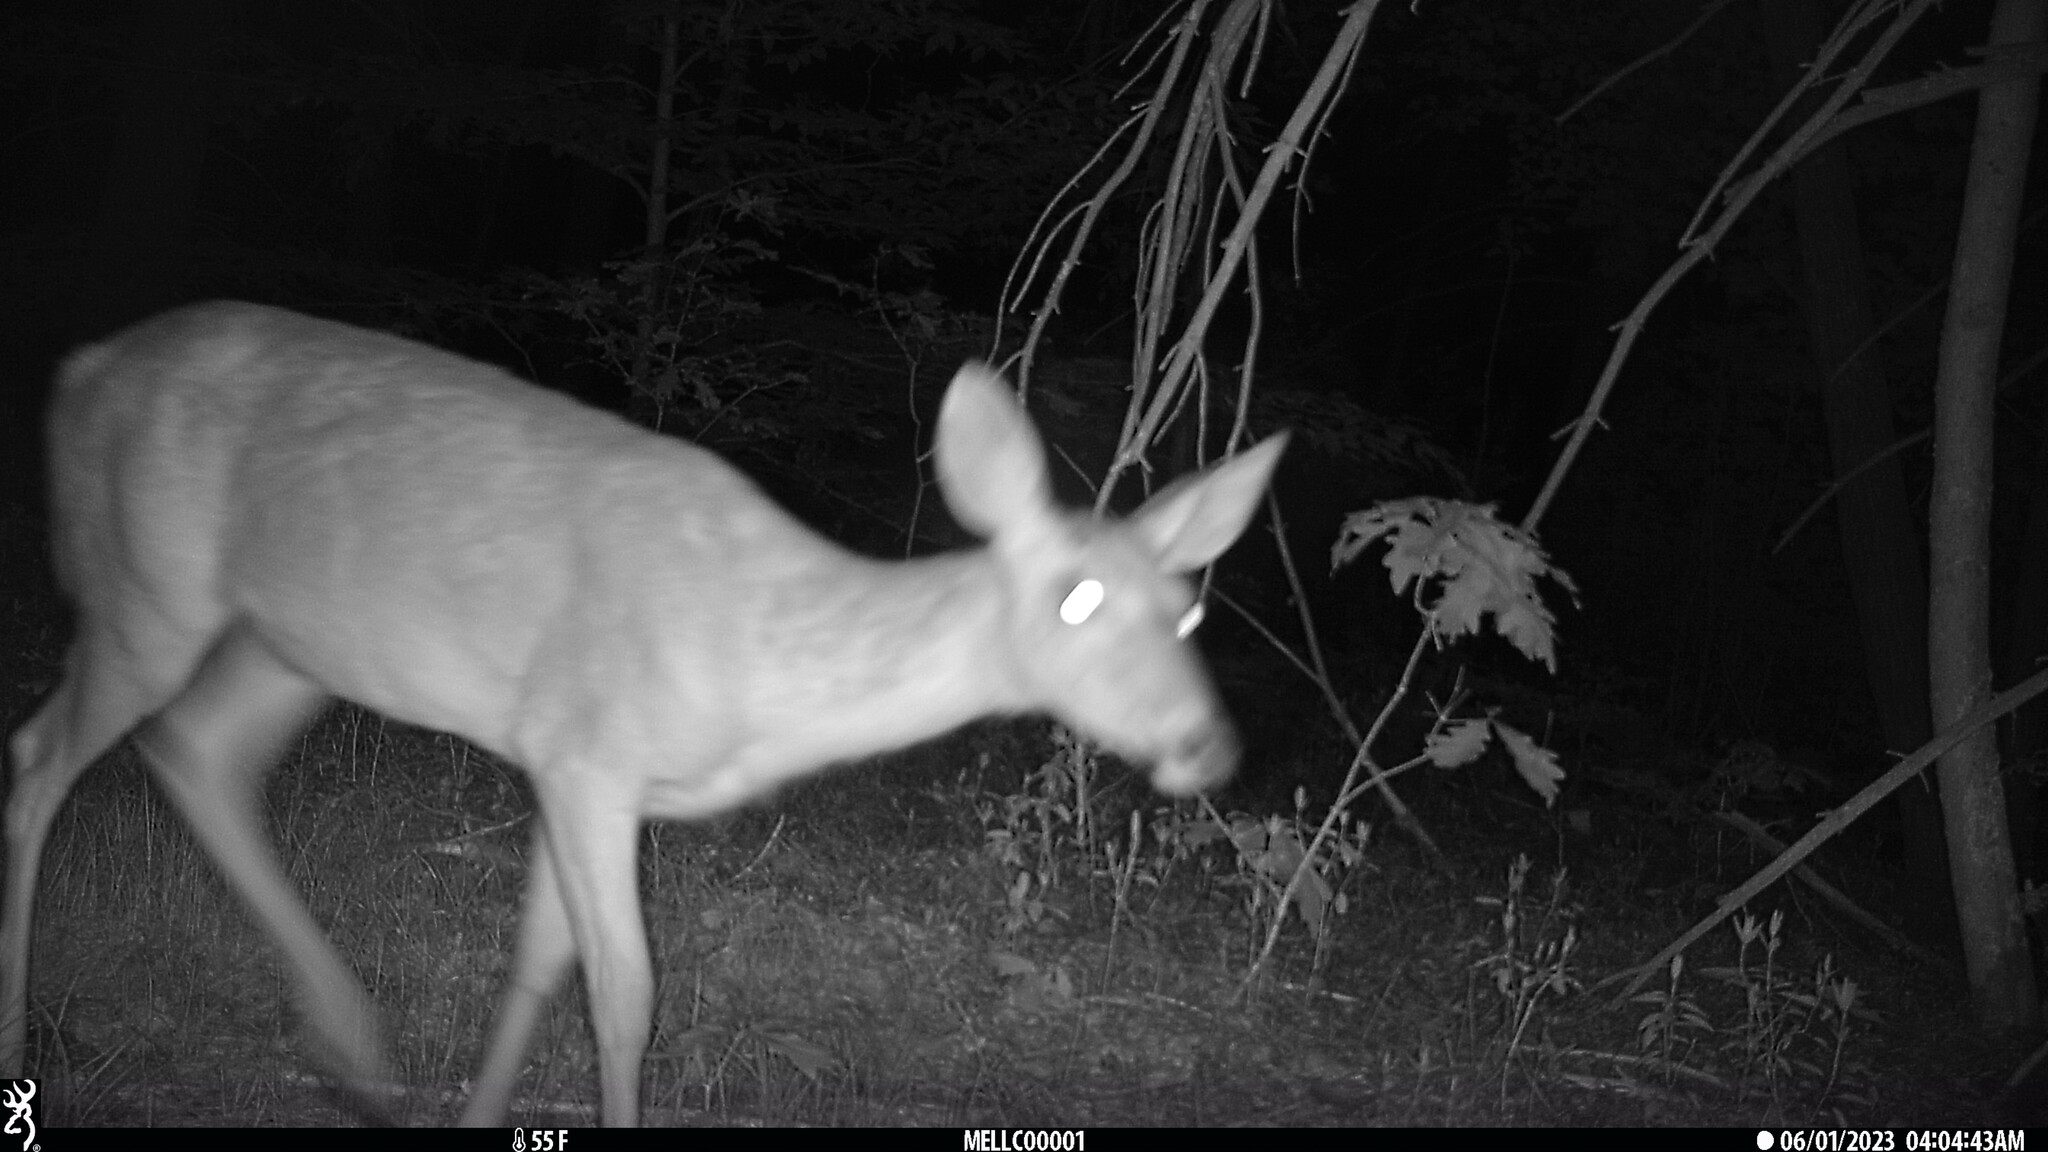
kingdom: Animalia
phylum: Chordata
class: Mammalia
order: Artiodactyla
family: Cervidae
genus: Odocoileus
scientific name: Odocoileus virginianus
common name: White-tailed deer
